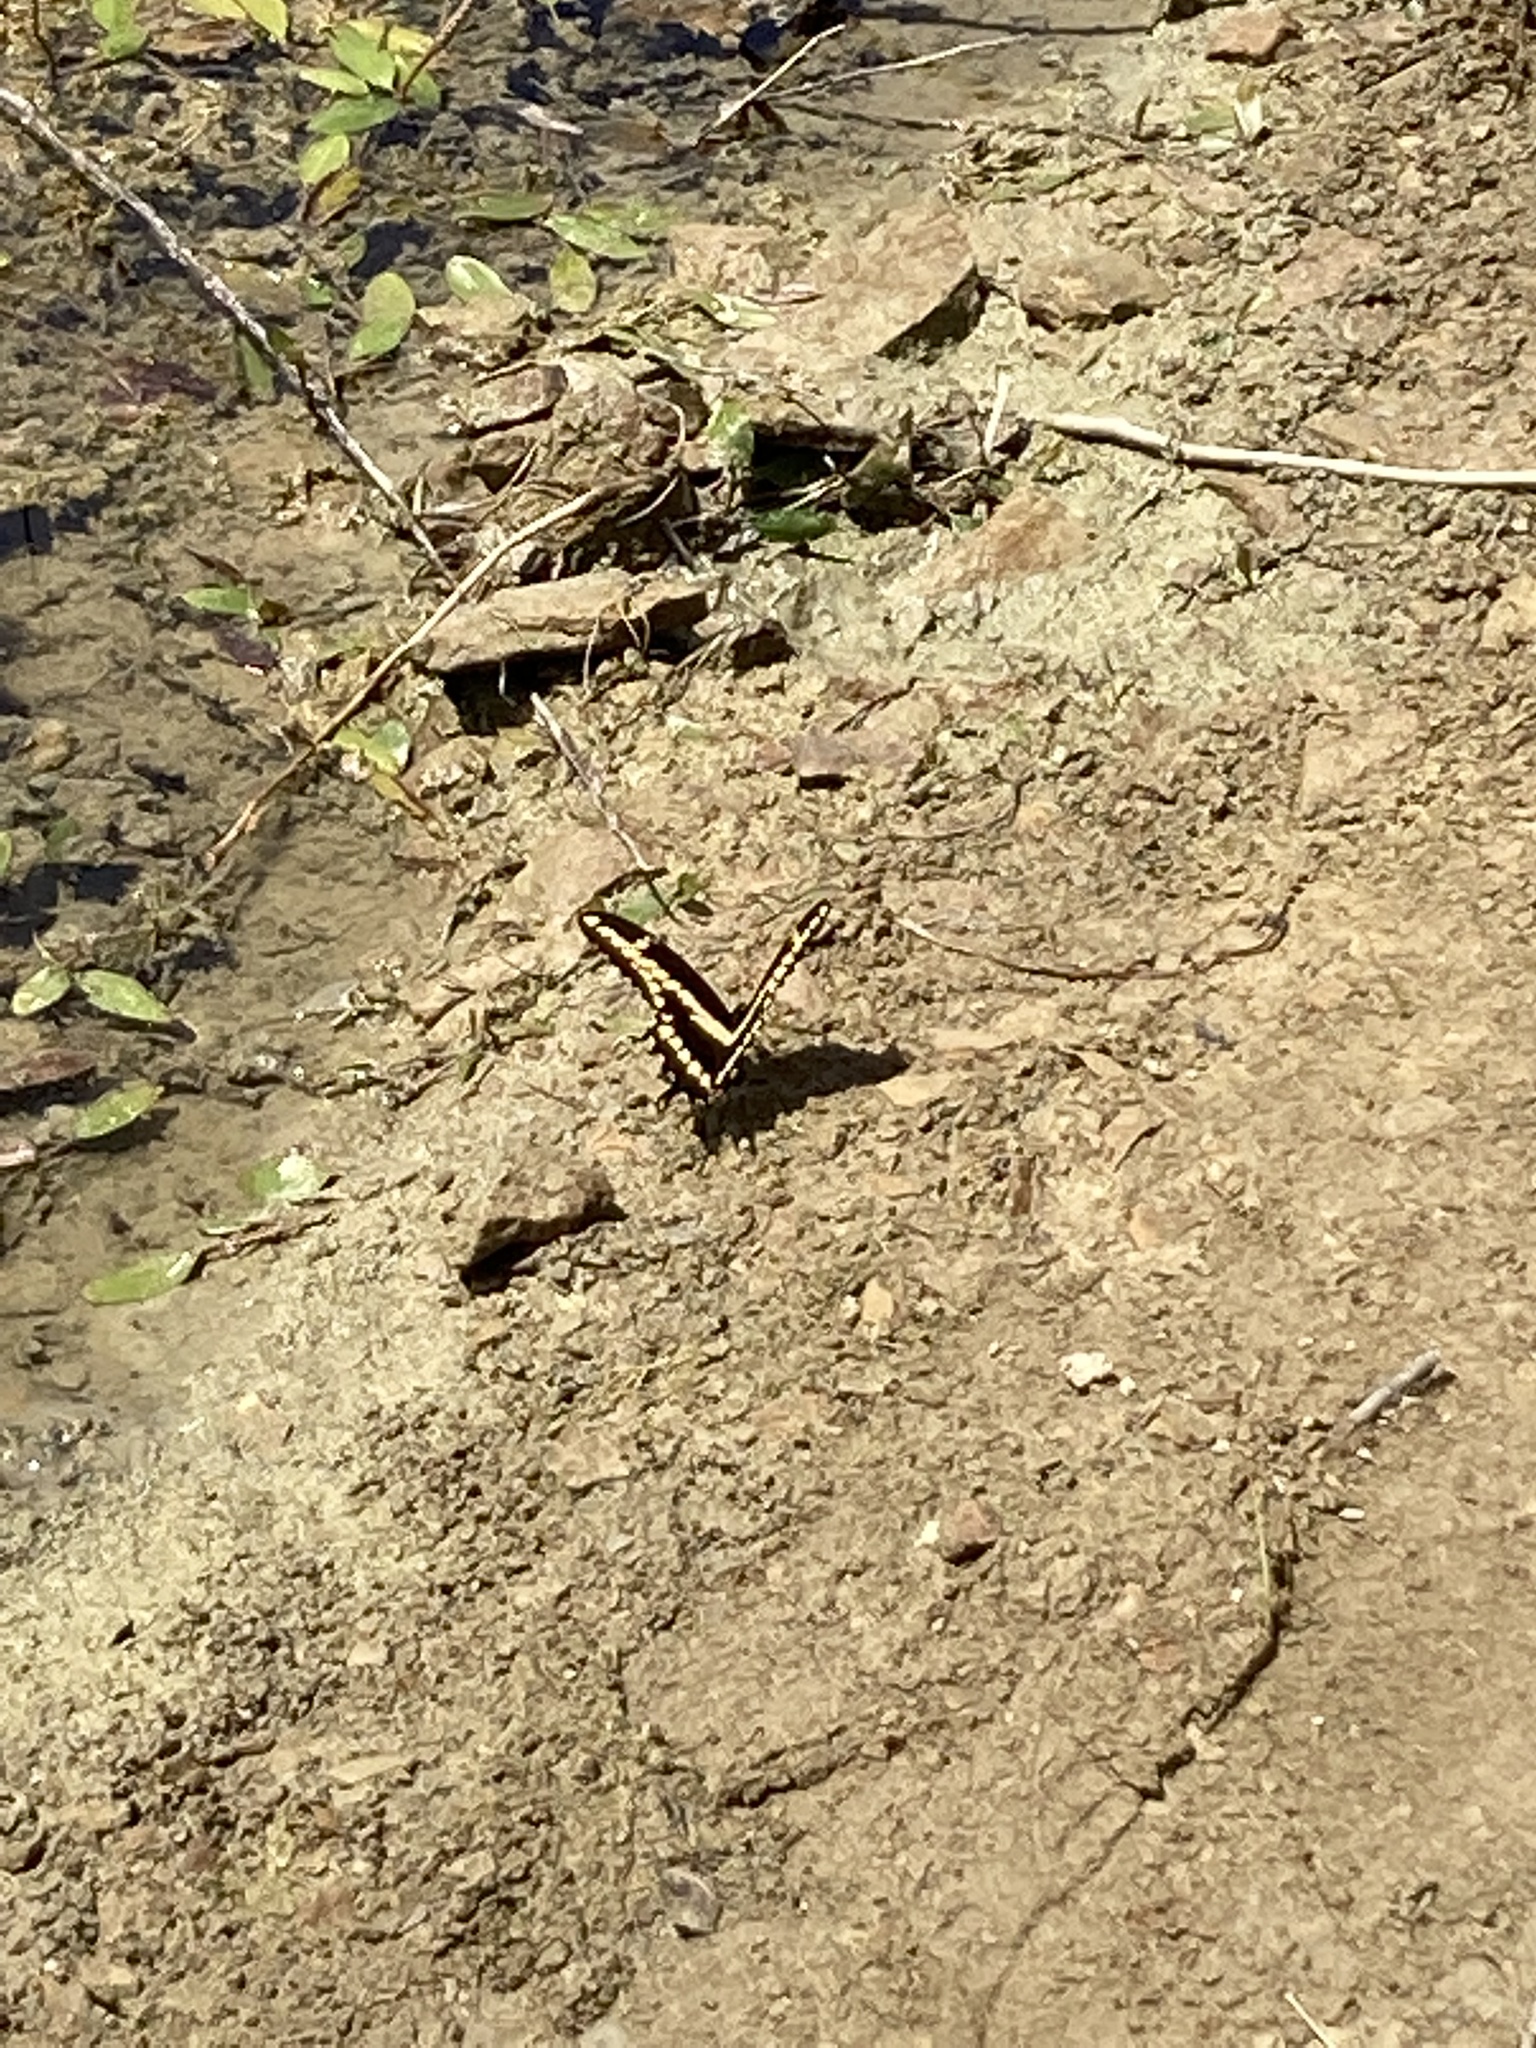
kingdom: Animalia
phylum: Arthropoda
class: Insecta
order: Lepidoptera
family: Papilionidae
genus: Papilio
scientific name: Papilio cresphontes
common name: Giant swallowtail
